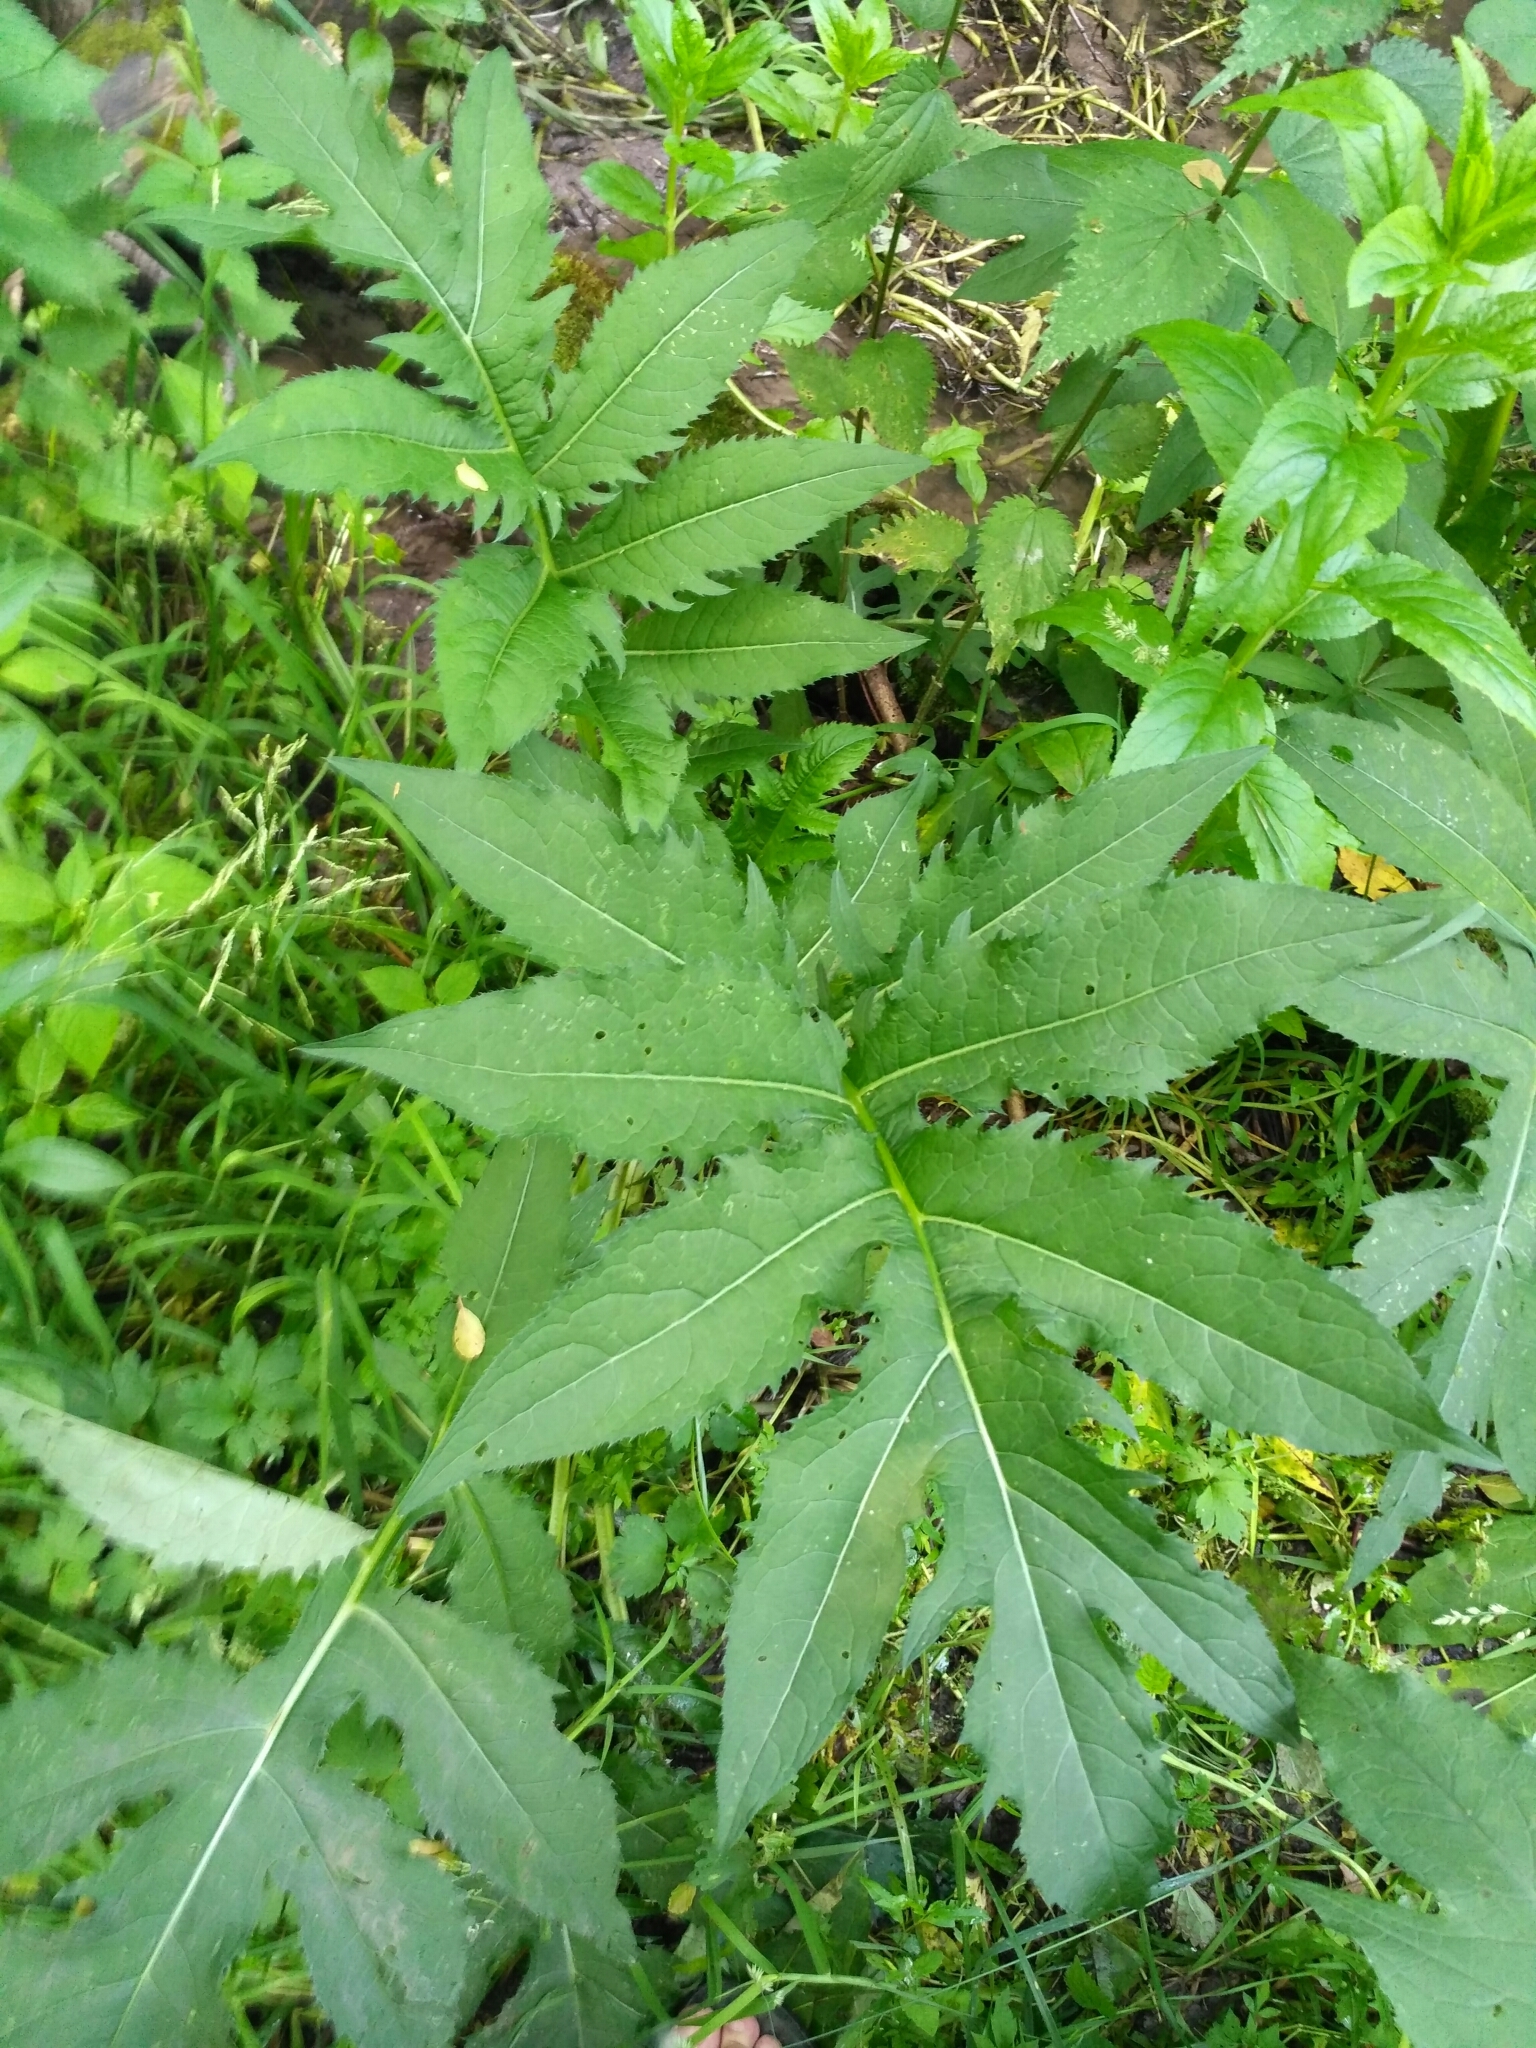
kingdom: Plantae
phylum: Tracheophyta
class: Magnoliopsida
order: Asterales
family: Asteraceae
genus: Cirsium
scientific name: Cirsium oleraceum
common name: Cabbage thistle
